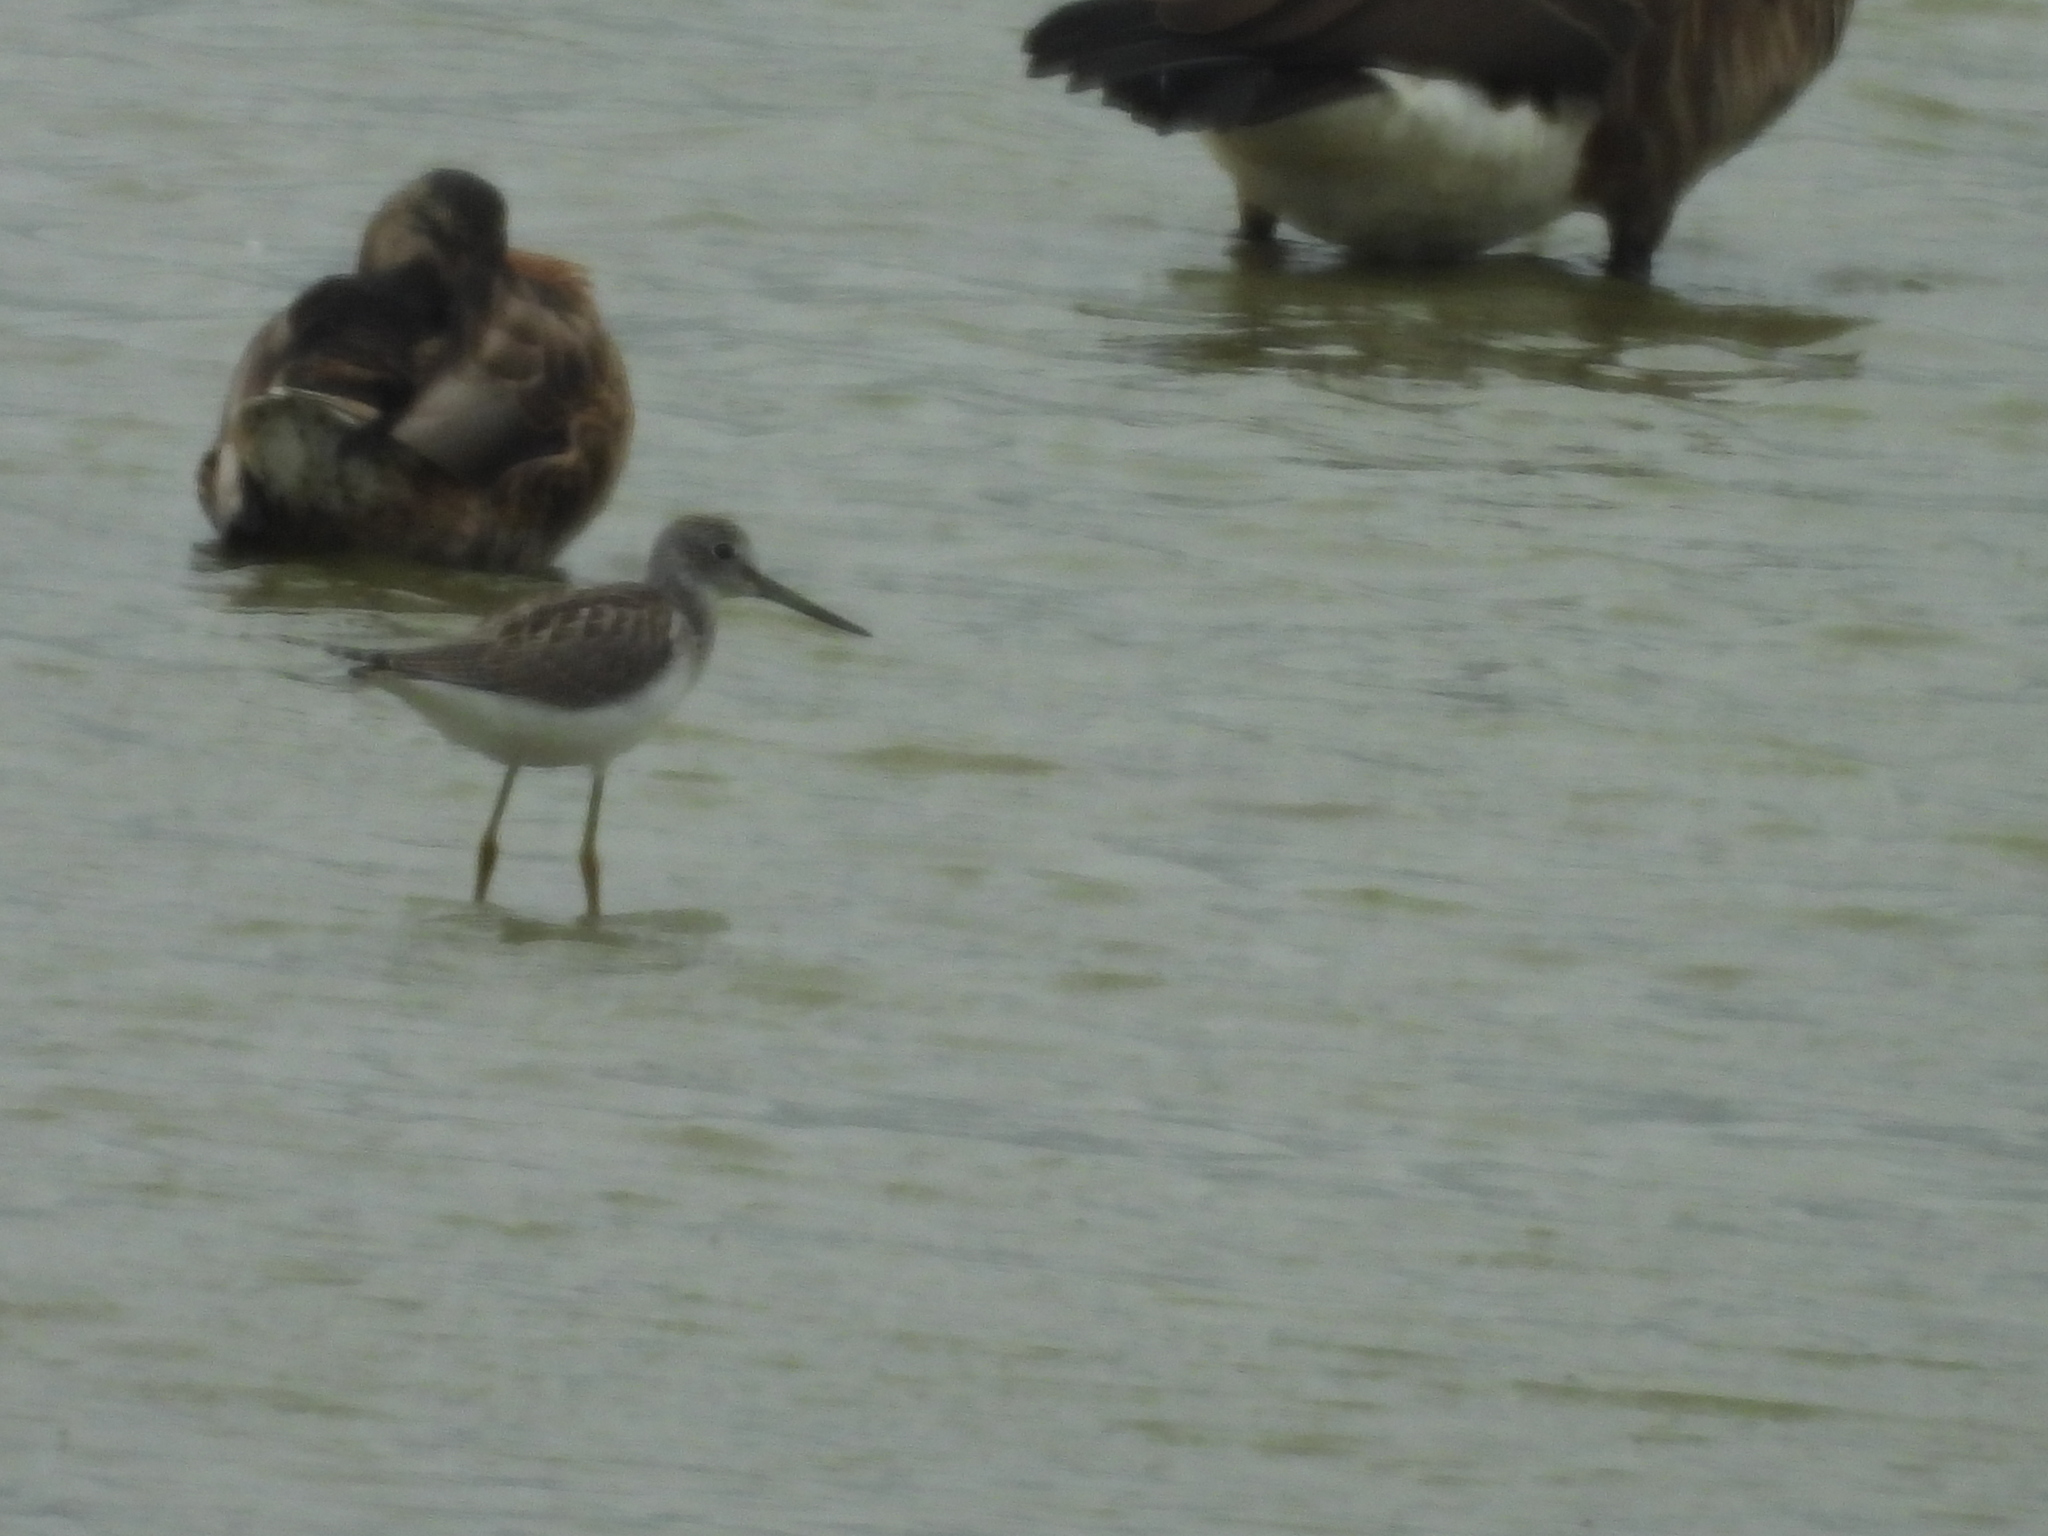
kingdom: Animalia
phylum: Chordata
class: Aves
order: Charadriiformes
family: Scolopacidae
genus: Tringa
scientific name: Tringa nebularia
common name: Common greenshank
